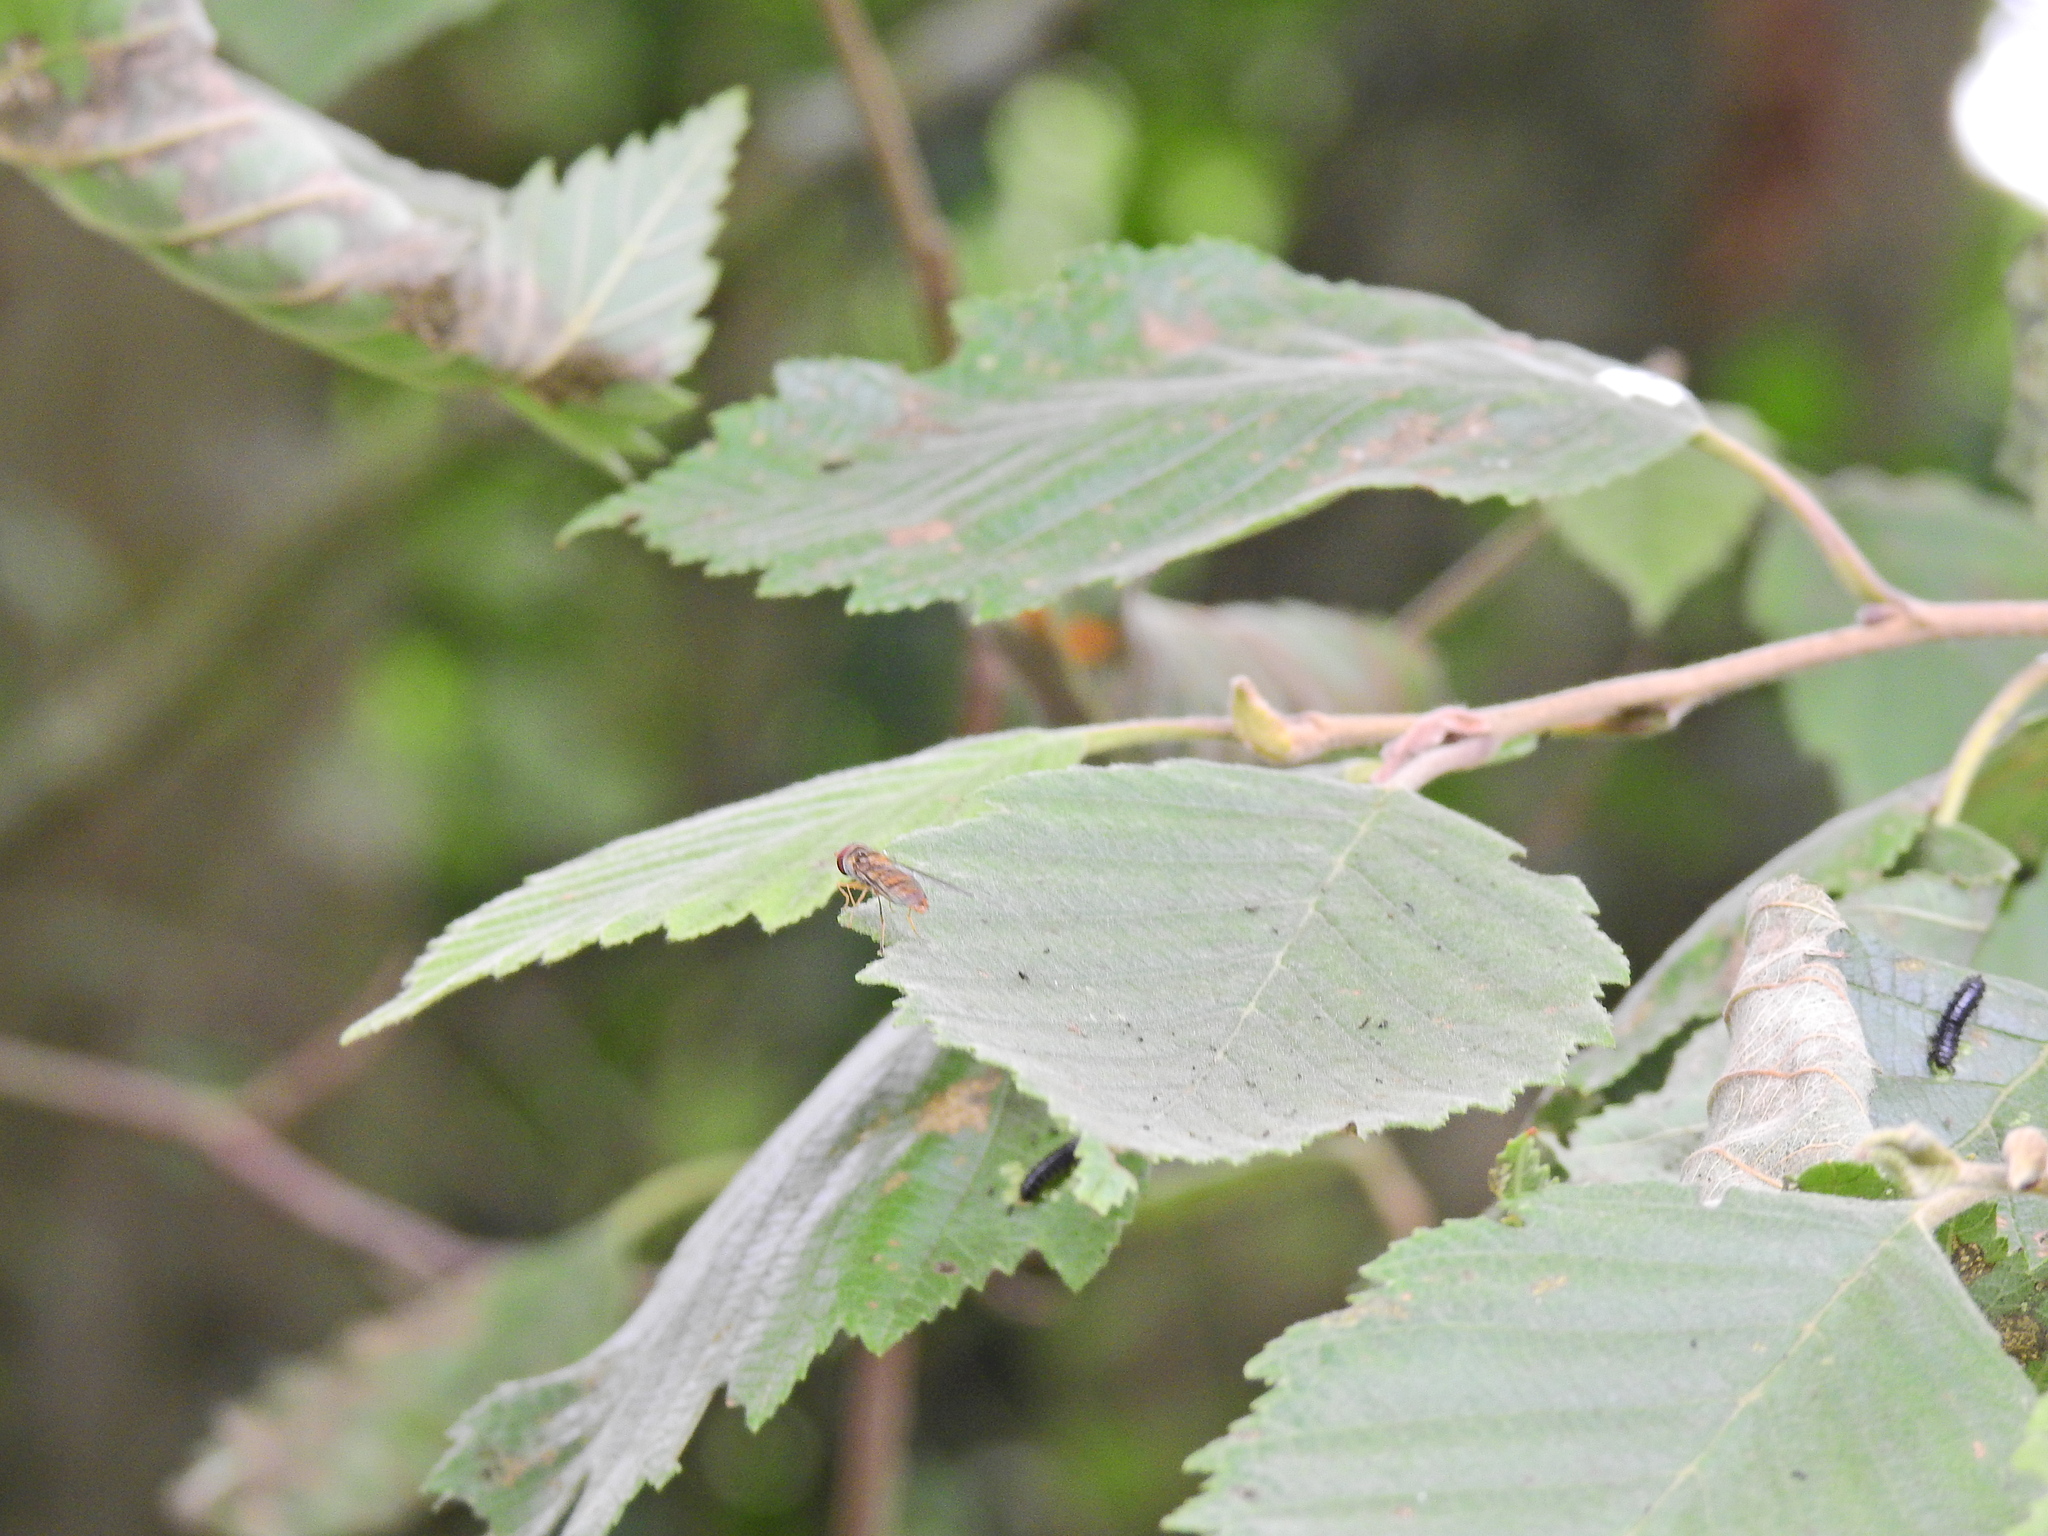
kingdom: Animalia
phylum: Arthropoda
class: Insecta
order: Diptera
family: Syrphidae
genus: Episyrphus
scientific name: Episyrphus balteatus
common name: Marmalade hoverfly
